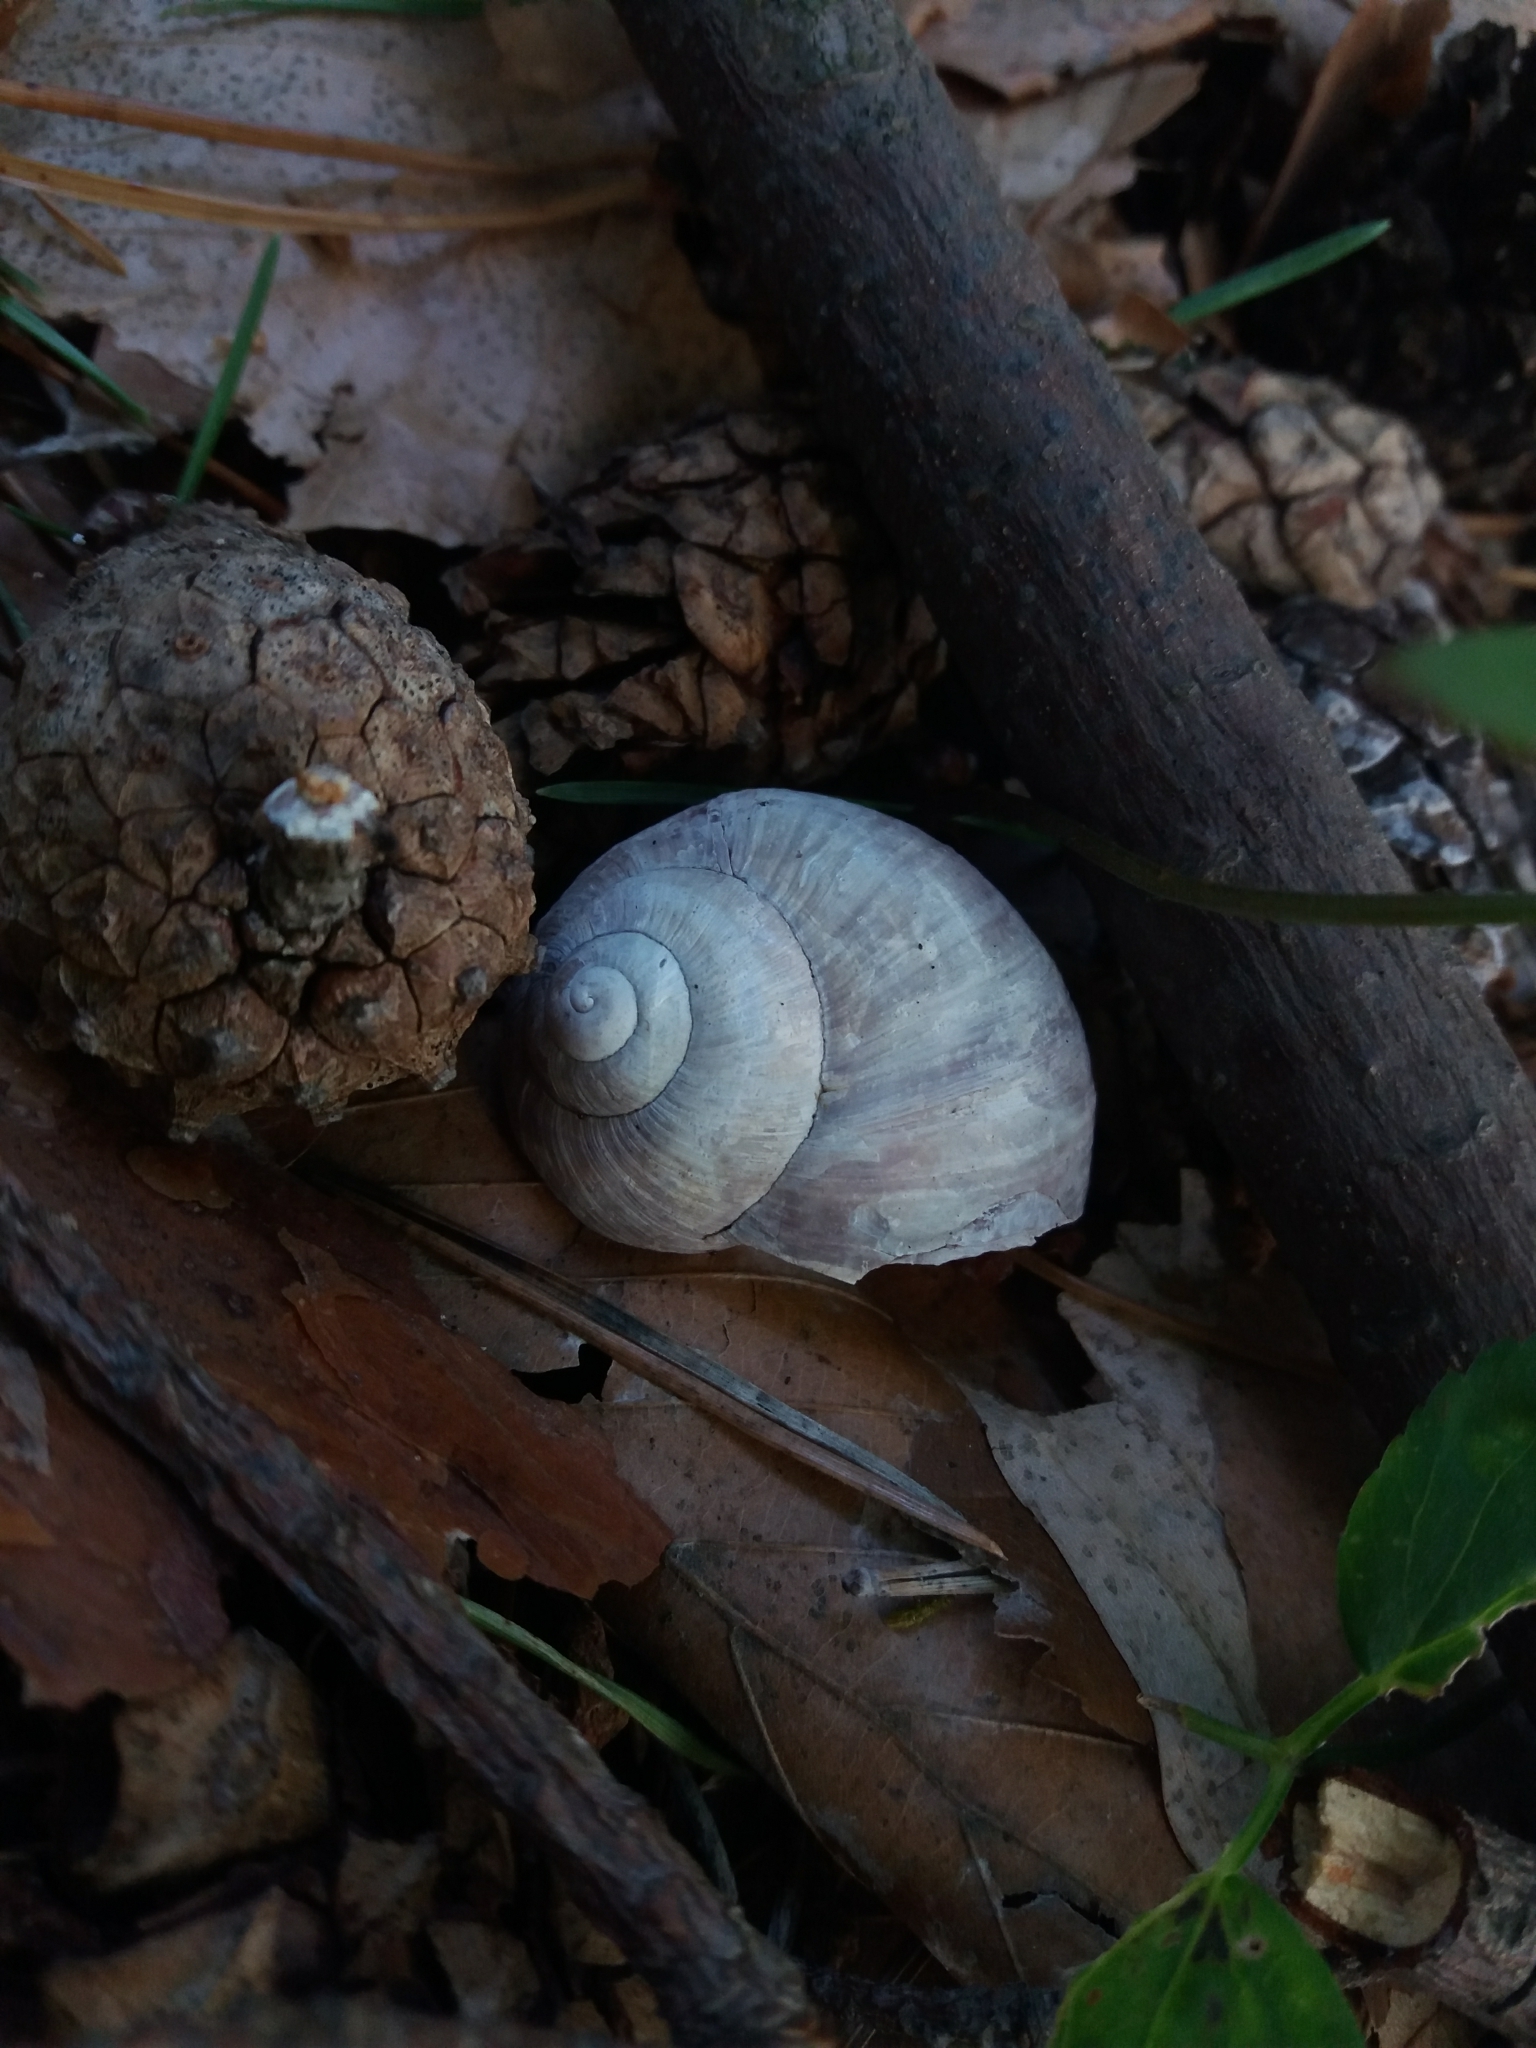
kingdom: Animalia
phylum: Mollusca
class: Gastropoda
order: Stylommatophora
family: Helicidae
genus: Helix
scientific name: Helix pomatia
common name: Roman snail
